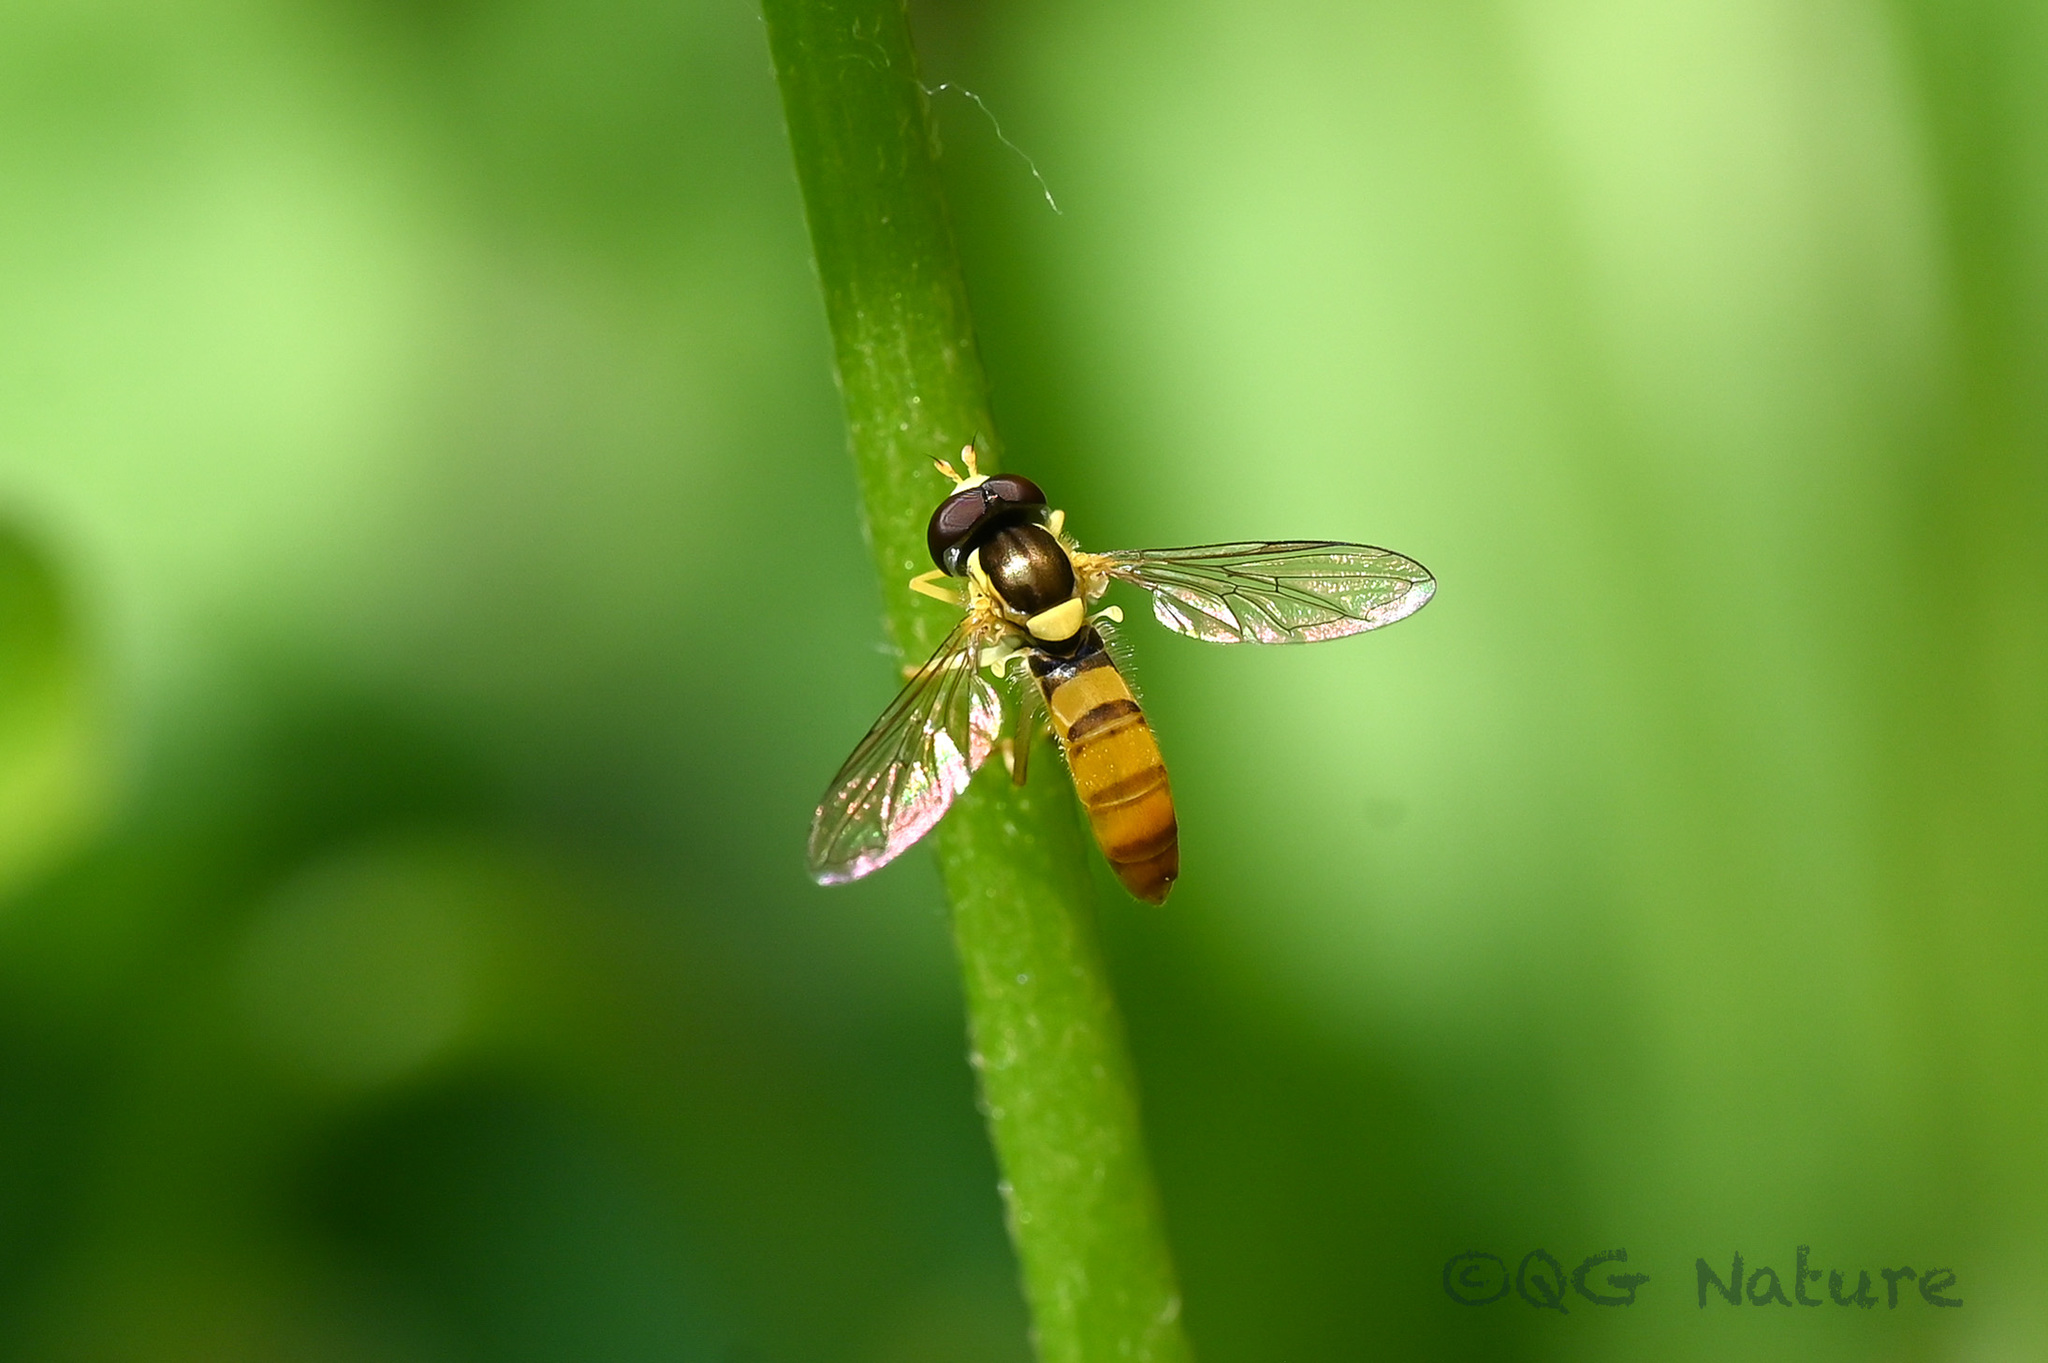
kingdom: Animalia
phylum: Arthropoda
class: Insecta
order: Diptera
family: Syrphidae
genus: Sphaerophoria
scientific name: Sphaerophoria macrogaster
